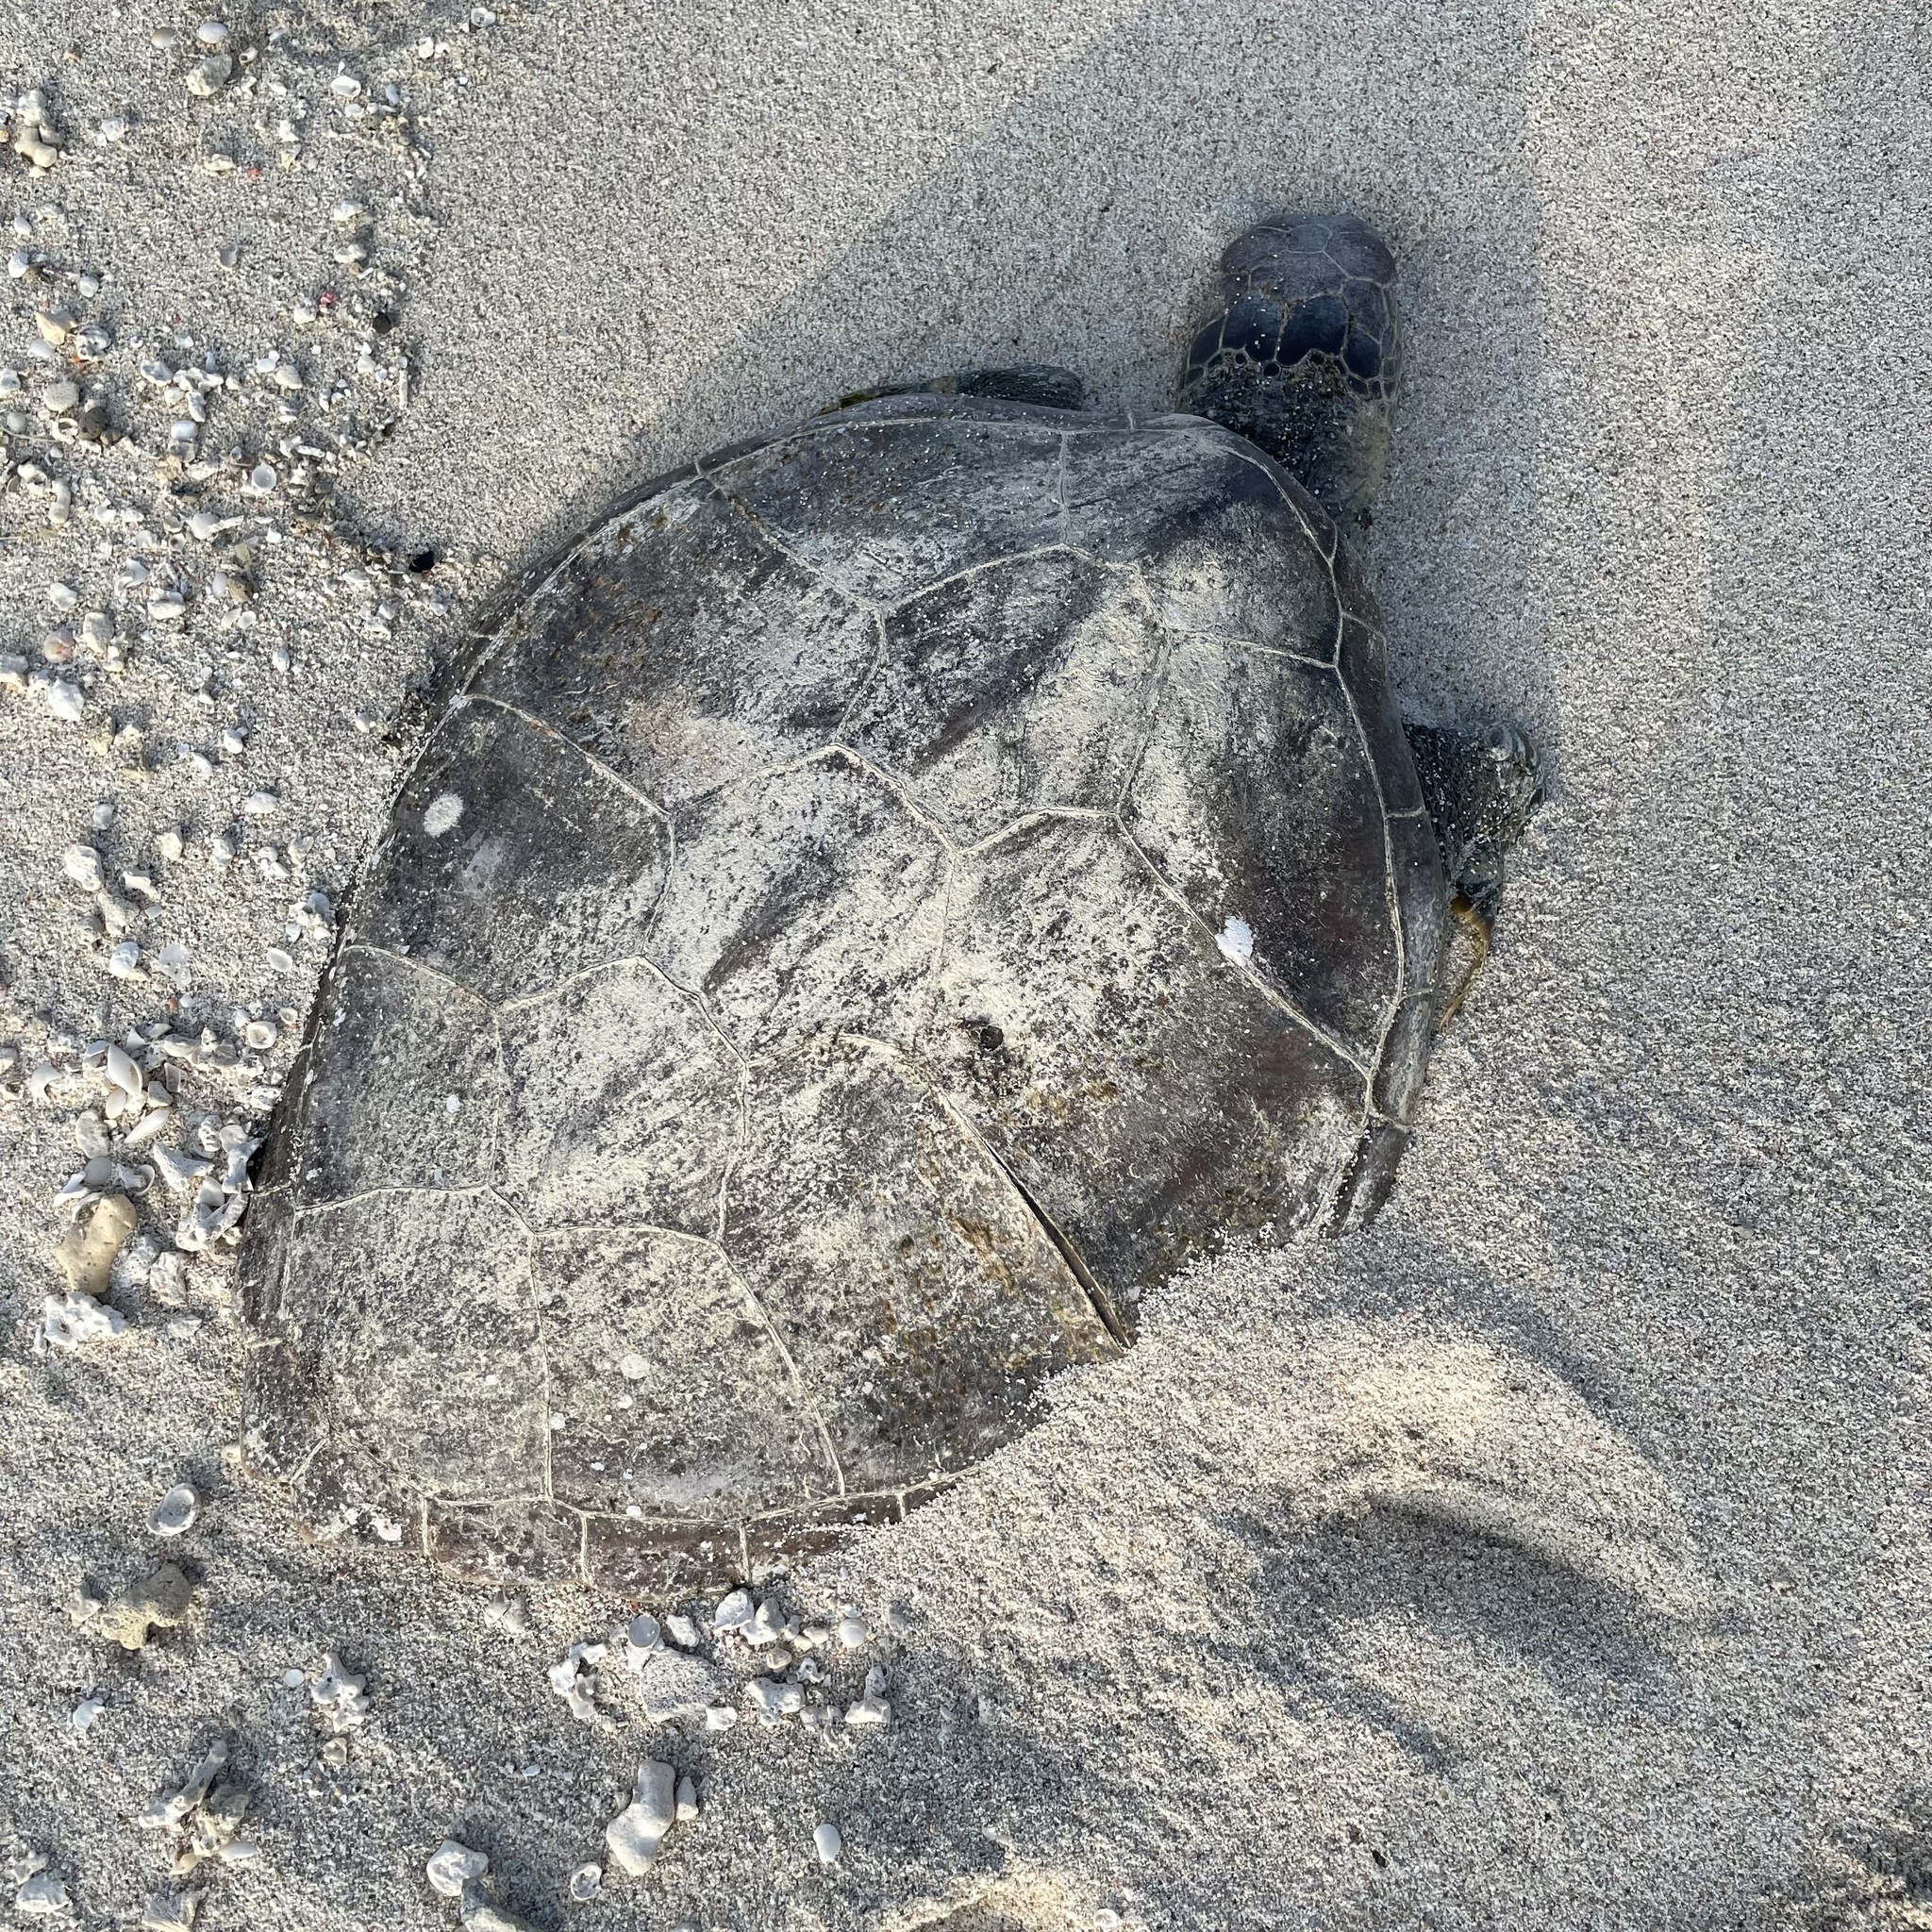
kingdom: Animalia
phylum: Chordata
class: Testudines
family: Cheloniidae
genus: Chelonia
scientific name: Chelonia mydas
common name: Green turtle
